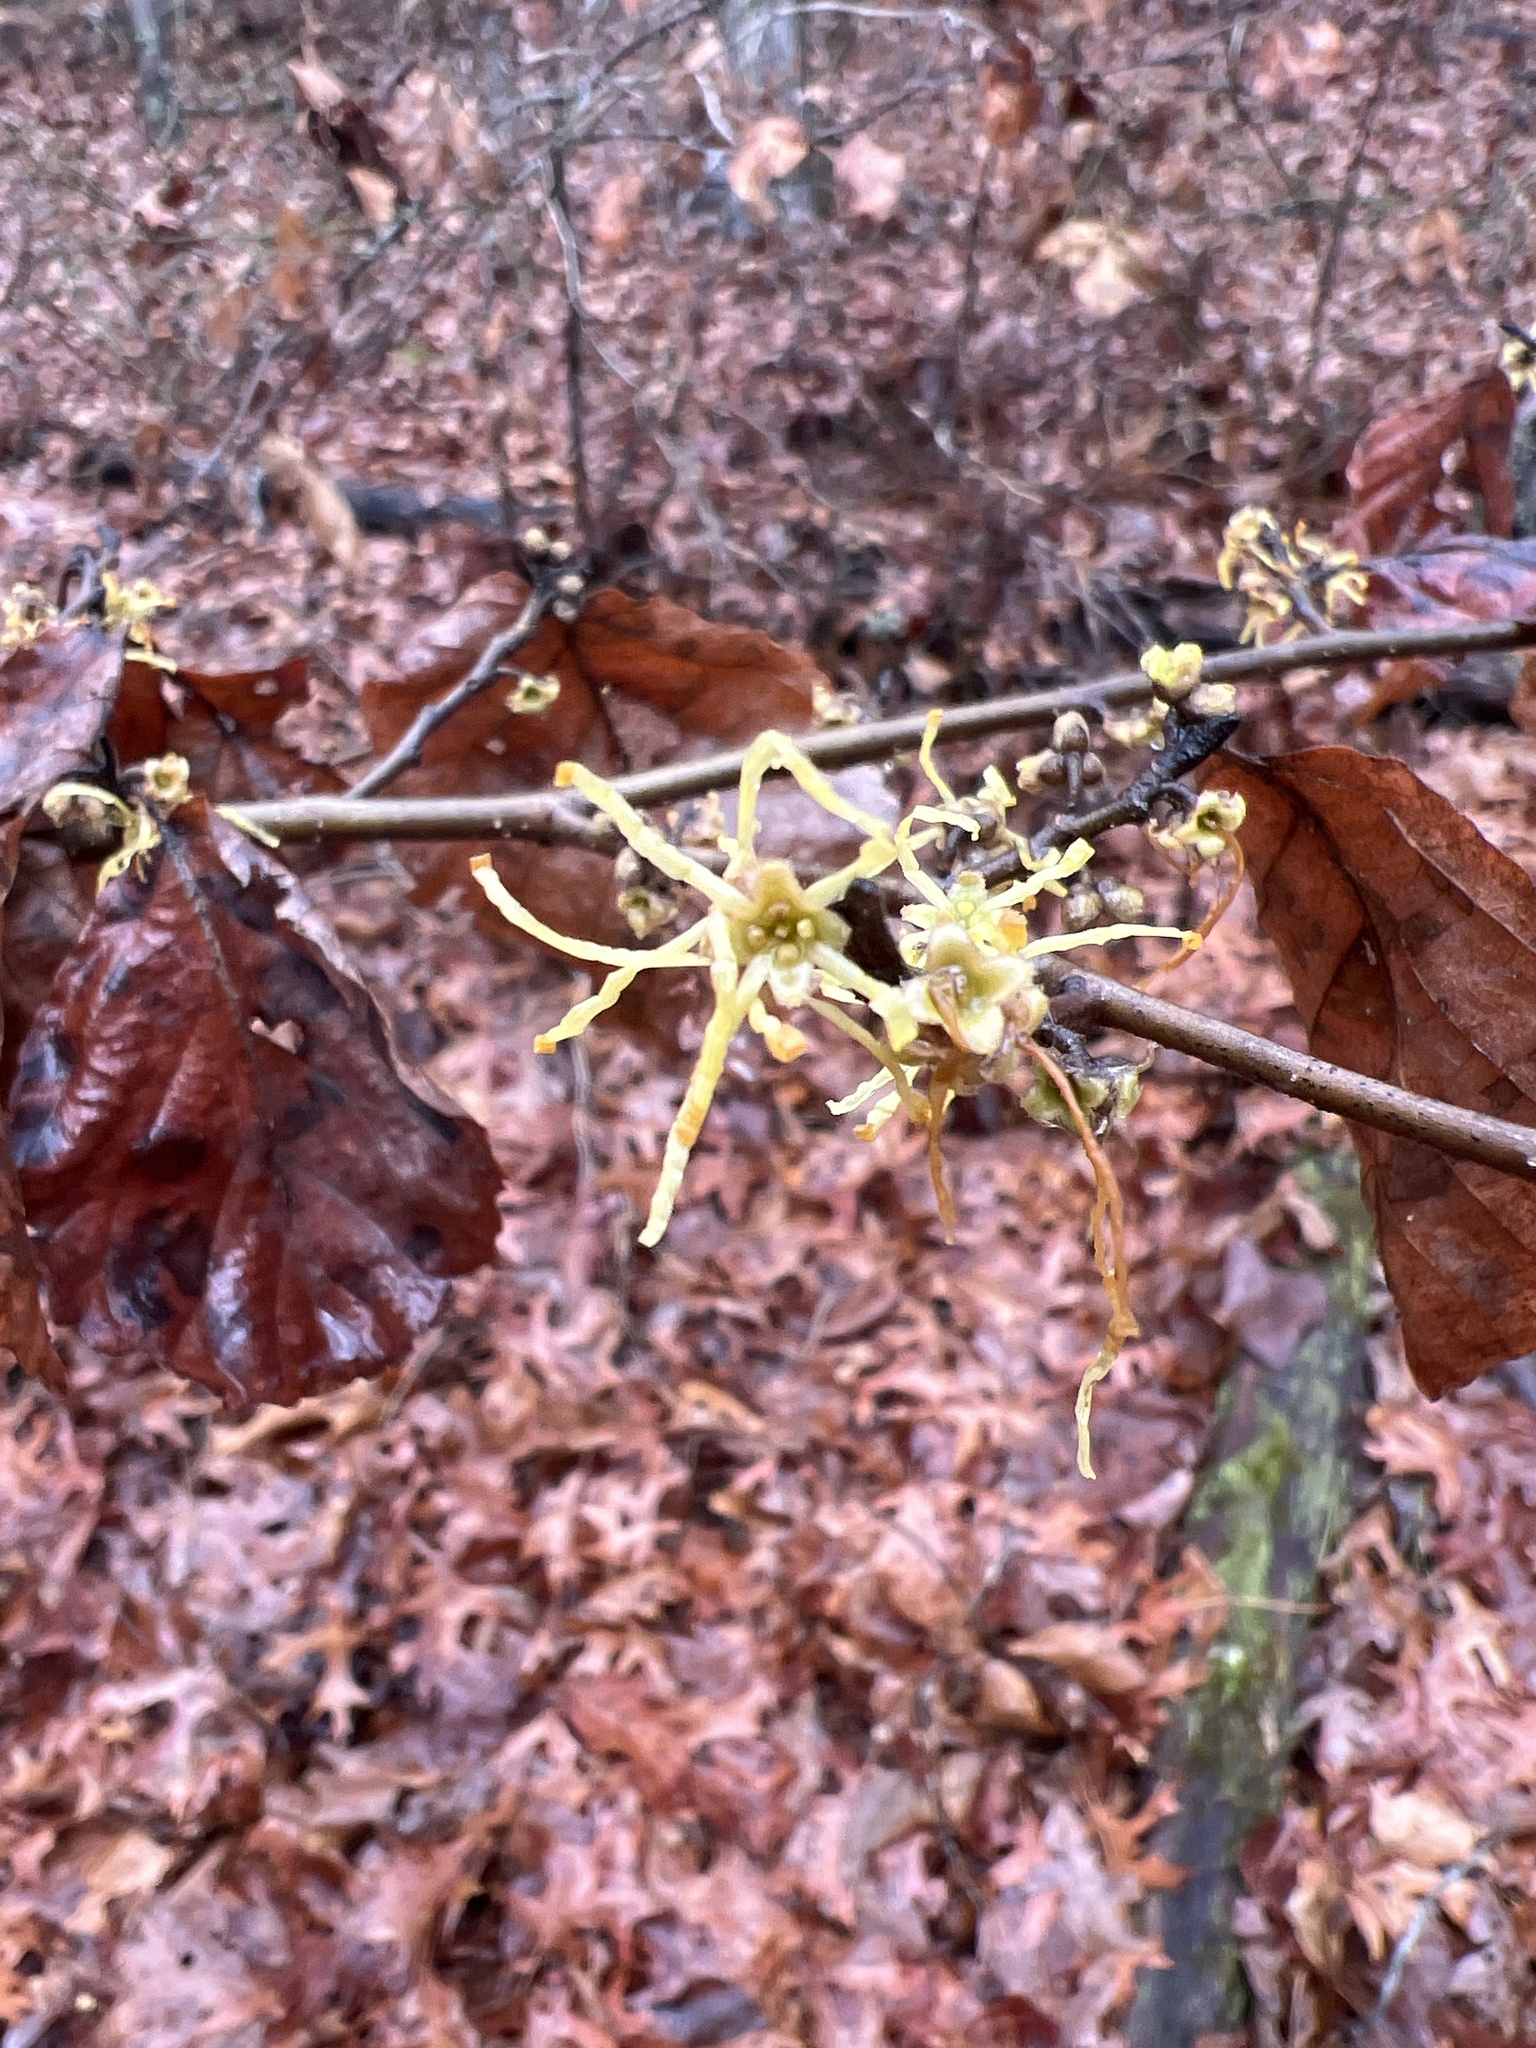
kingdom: Plantae
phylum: Tracheophyta
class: Magnoliopsida
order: Saxifragales
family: Hamamelidaceae
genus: Hamamelis
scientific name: Hamamelis virginiana
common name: Witch-hazel
